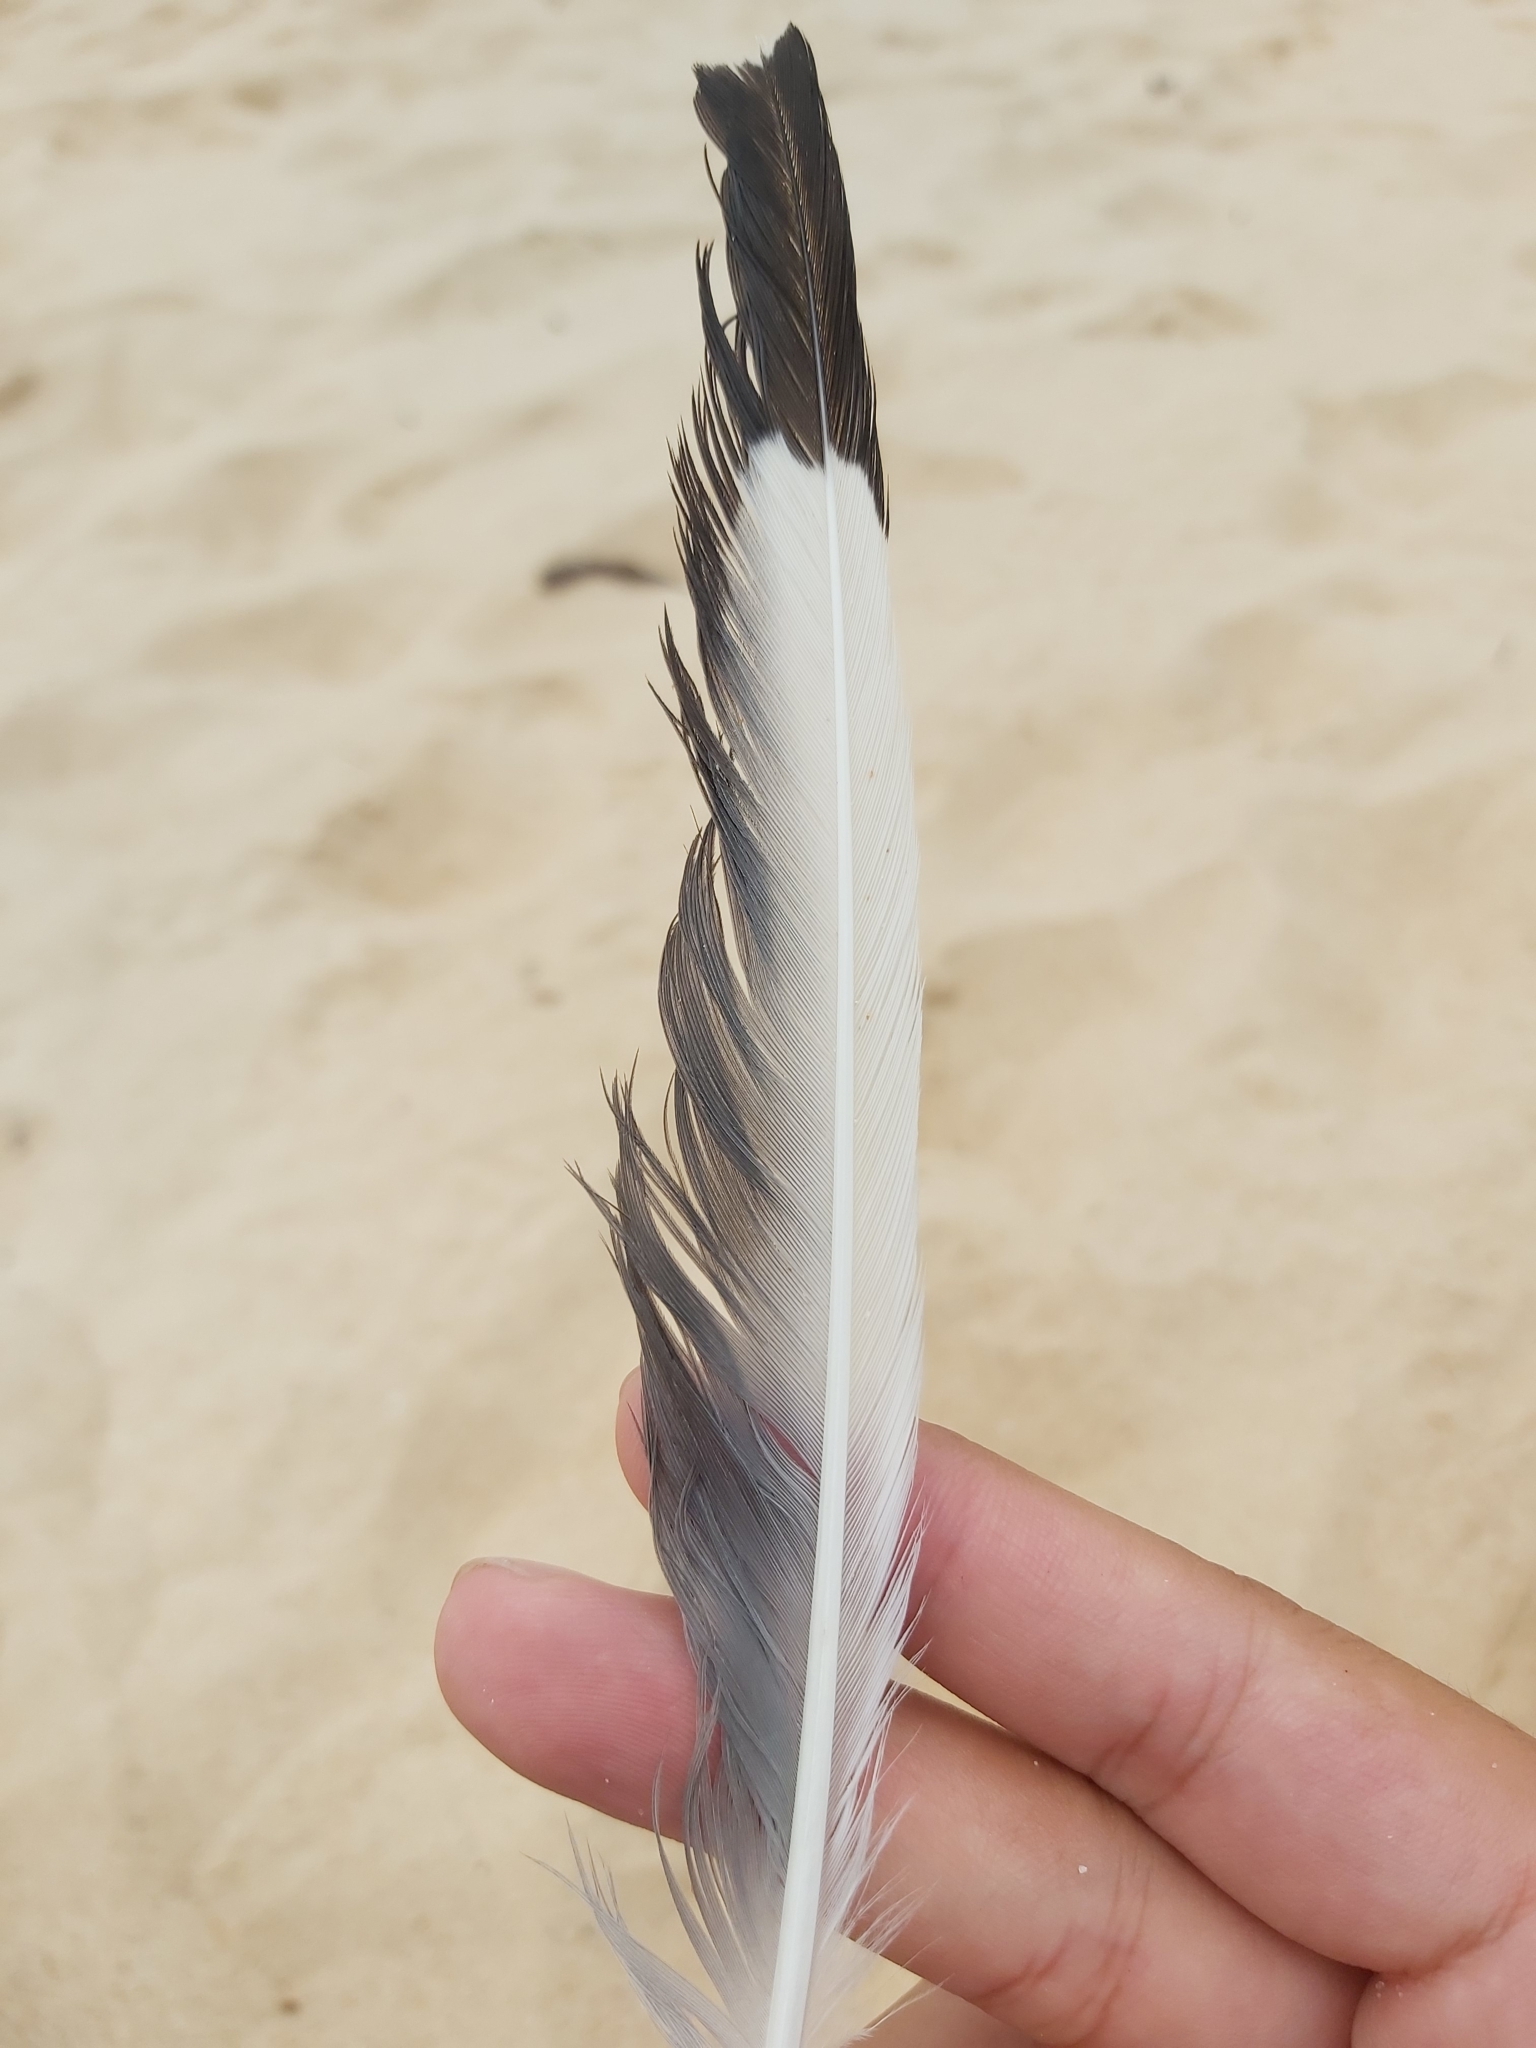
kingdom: Animalia
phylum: Chordata
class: Aves
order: Charadriiformes
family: Laridae
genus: Chroicocephalus
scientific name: Chroicocephalus novaehollandiae
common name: Silver gull
